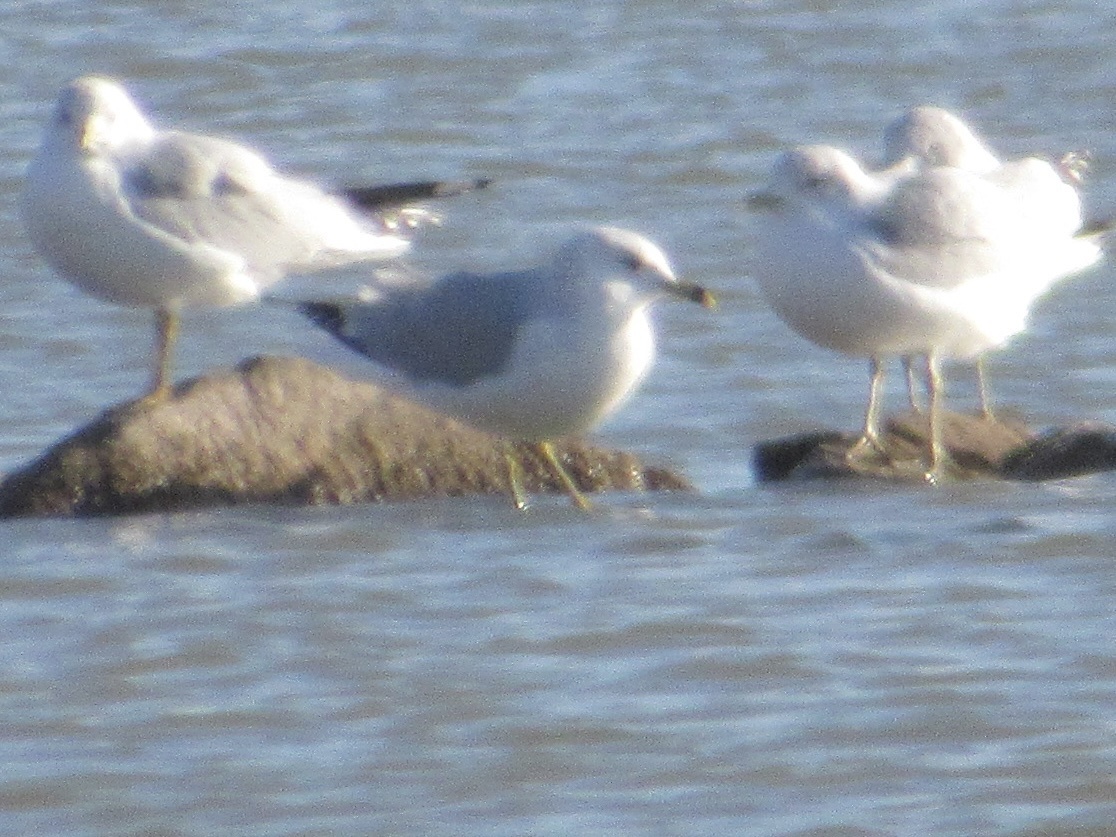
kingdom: Animalia
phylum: Chordata
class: Aves
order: Charadriiformes
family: Laridae
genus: Larus
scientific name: Larus delawarensis
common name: Ring-billed gull
